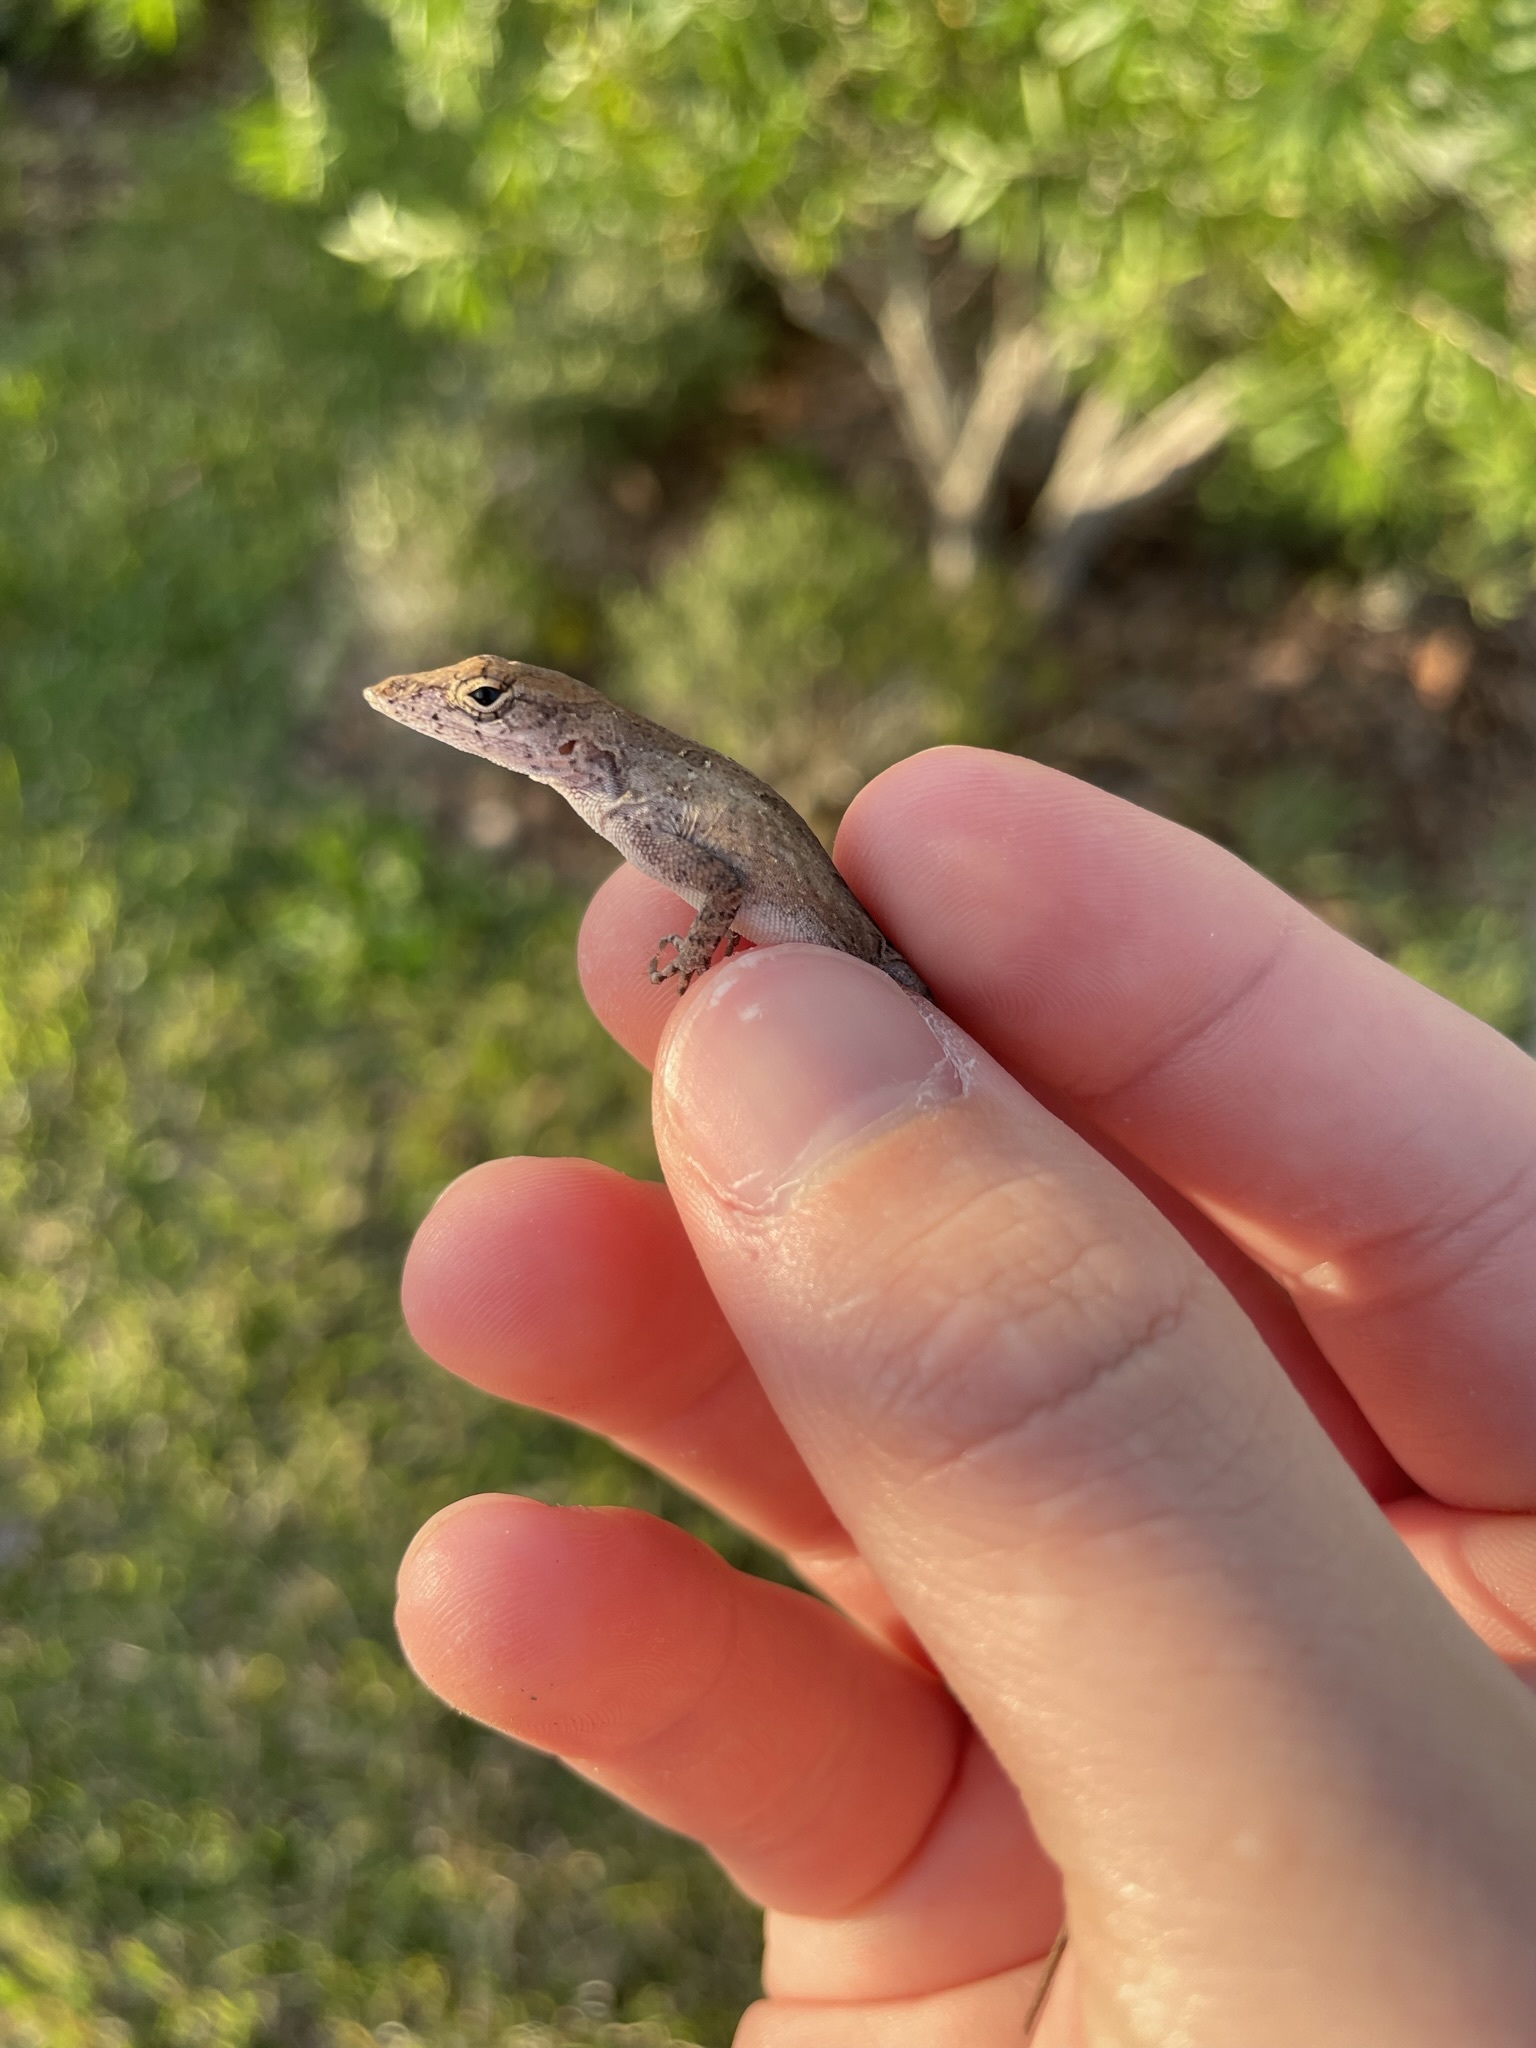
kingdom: Animalia
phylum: Chordata
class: Squamata
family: Dactyloidae
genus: Anolis
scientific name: Anolis sagrei
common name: Brown anole
